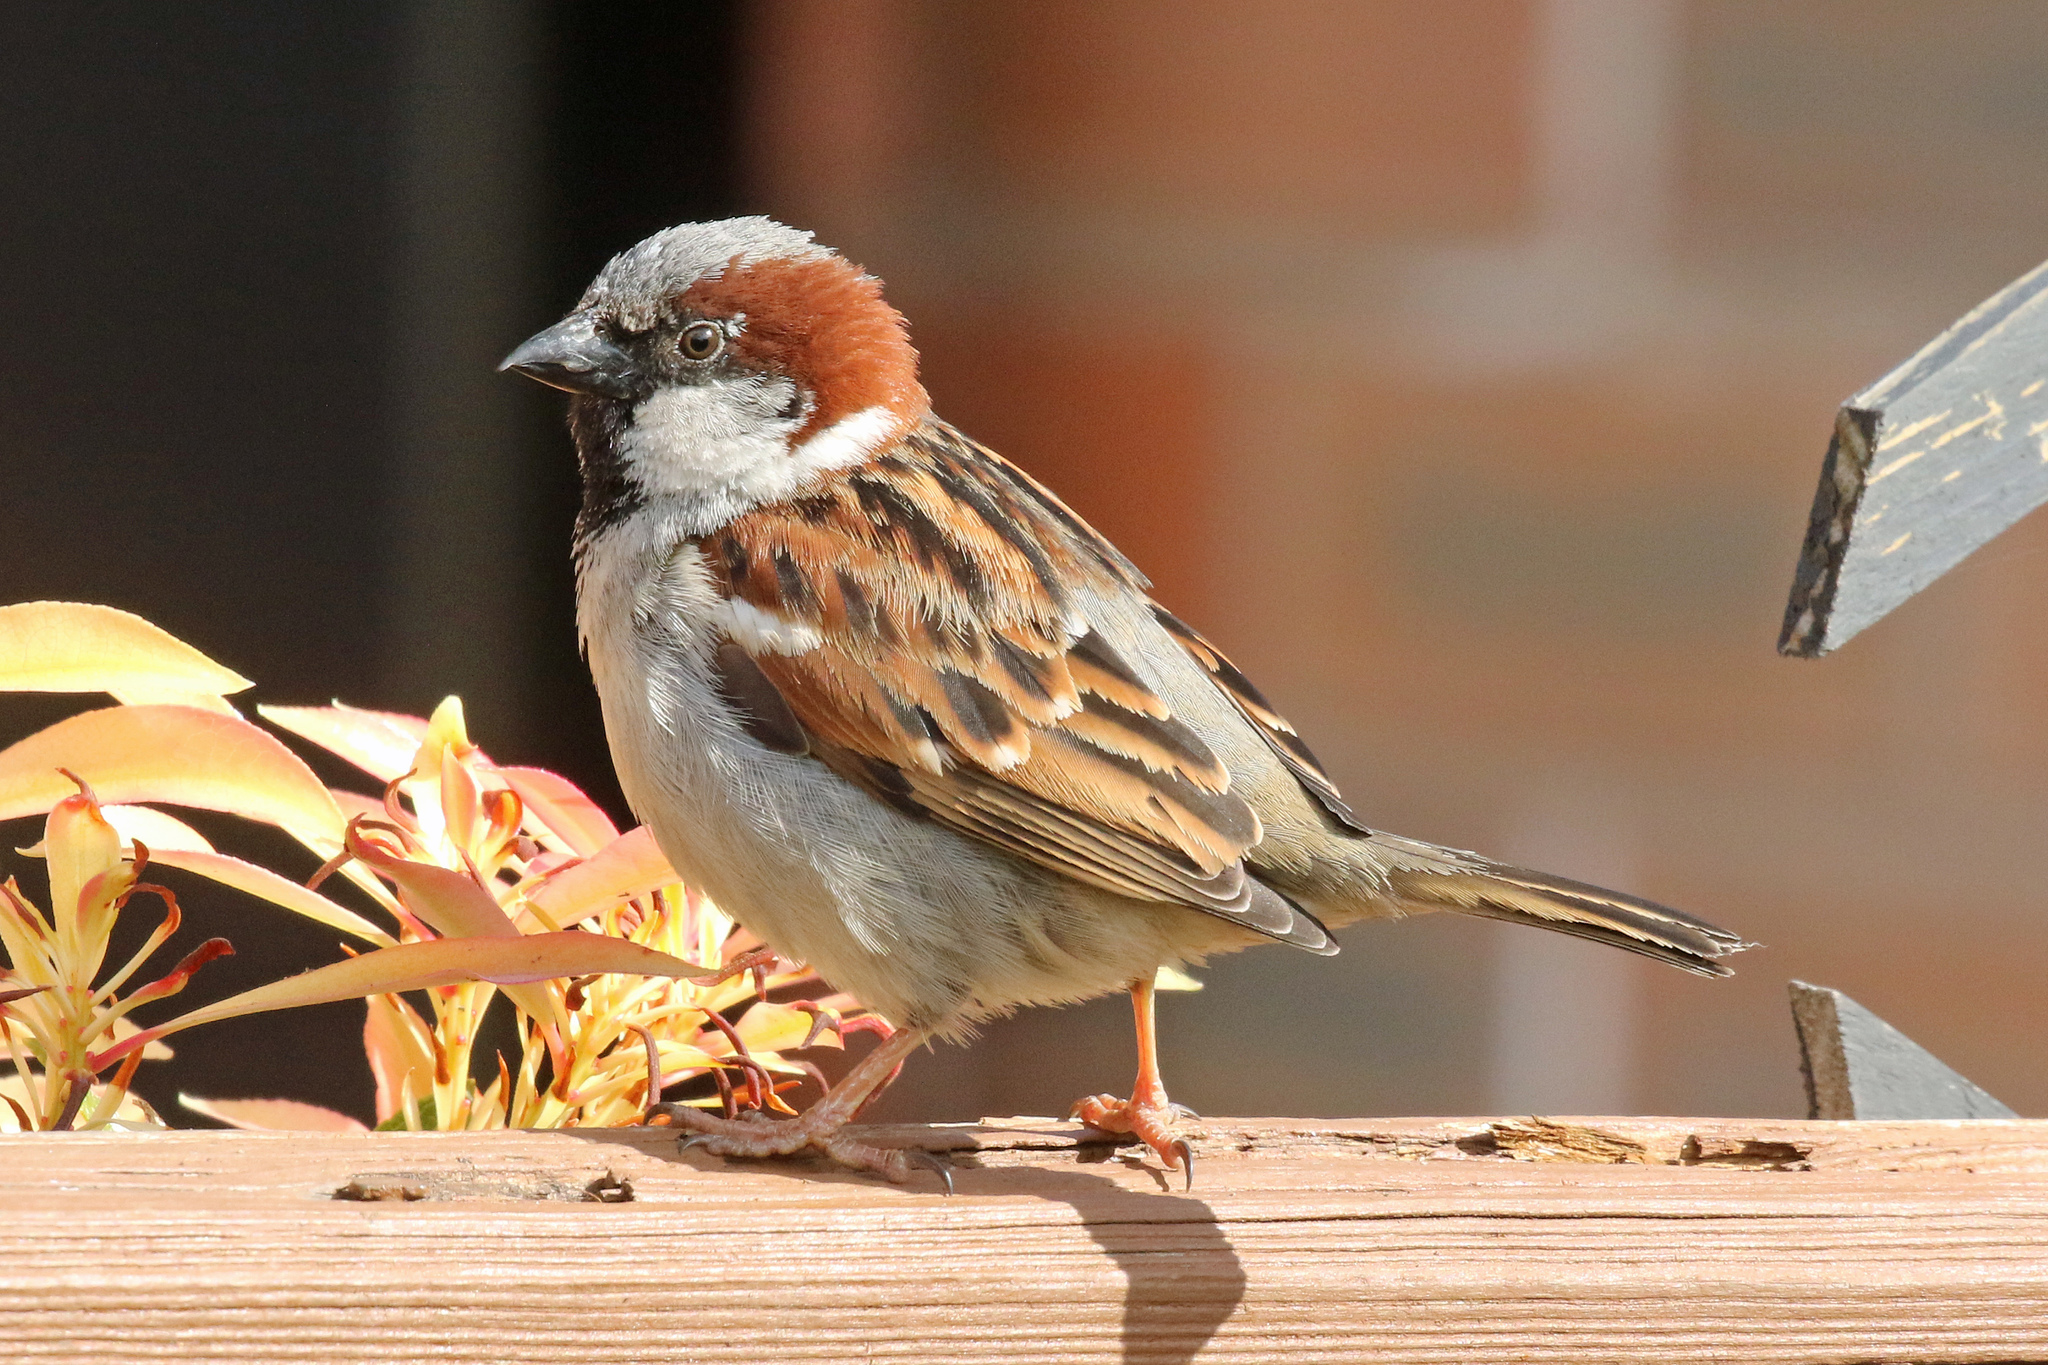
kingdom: Animalia
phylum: Chordata
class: Aves
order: Passeriformes
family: Passeridae
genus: Passer
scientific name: Passer domesticus
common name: House sparrow
